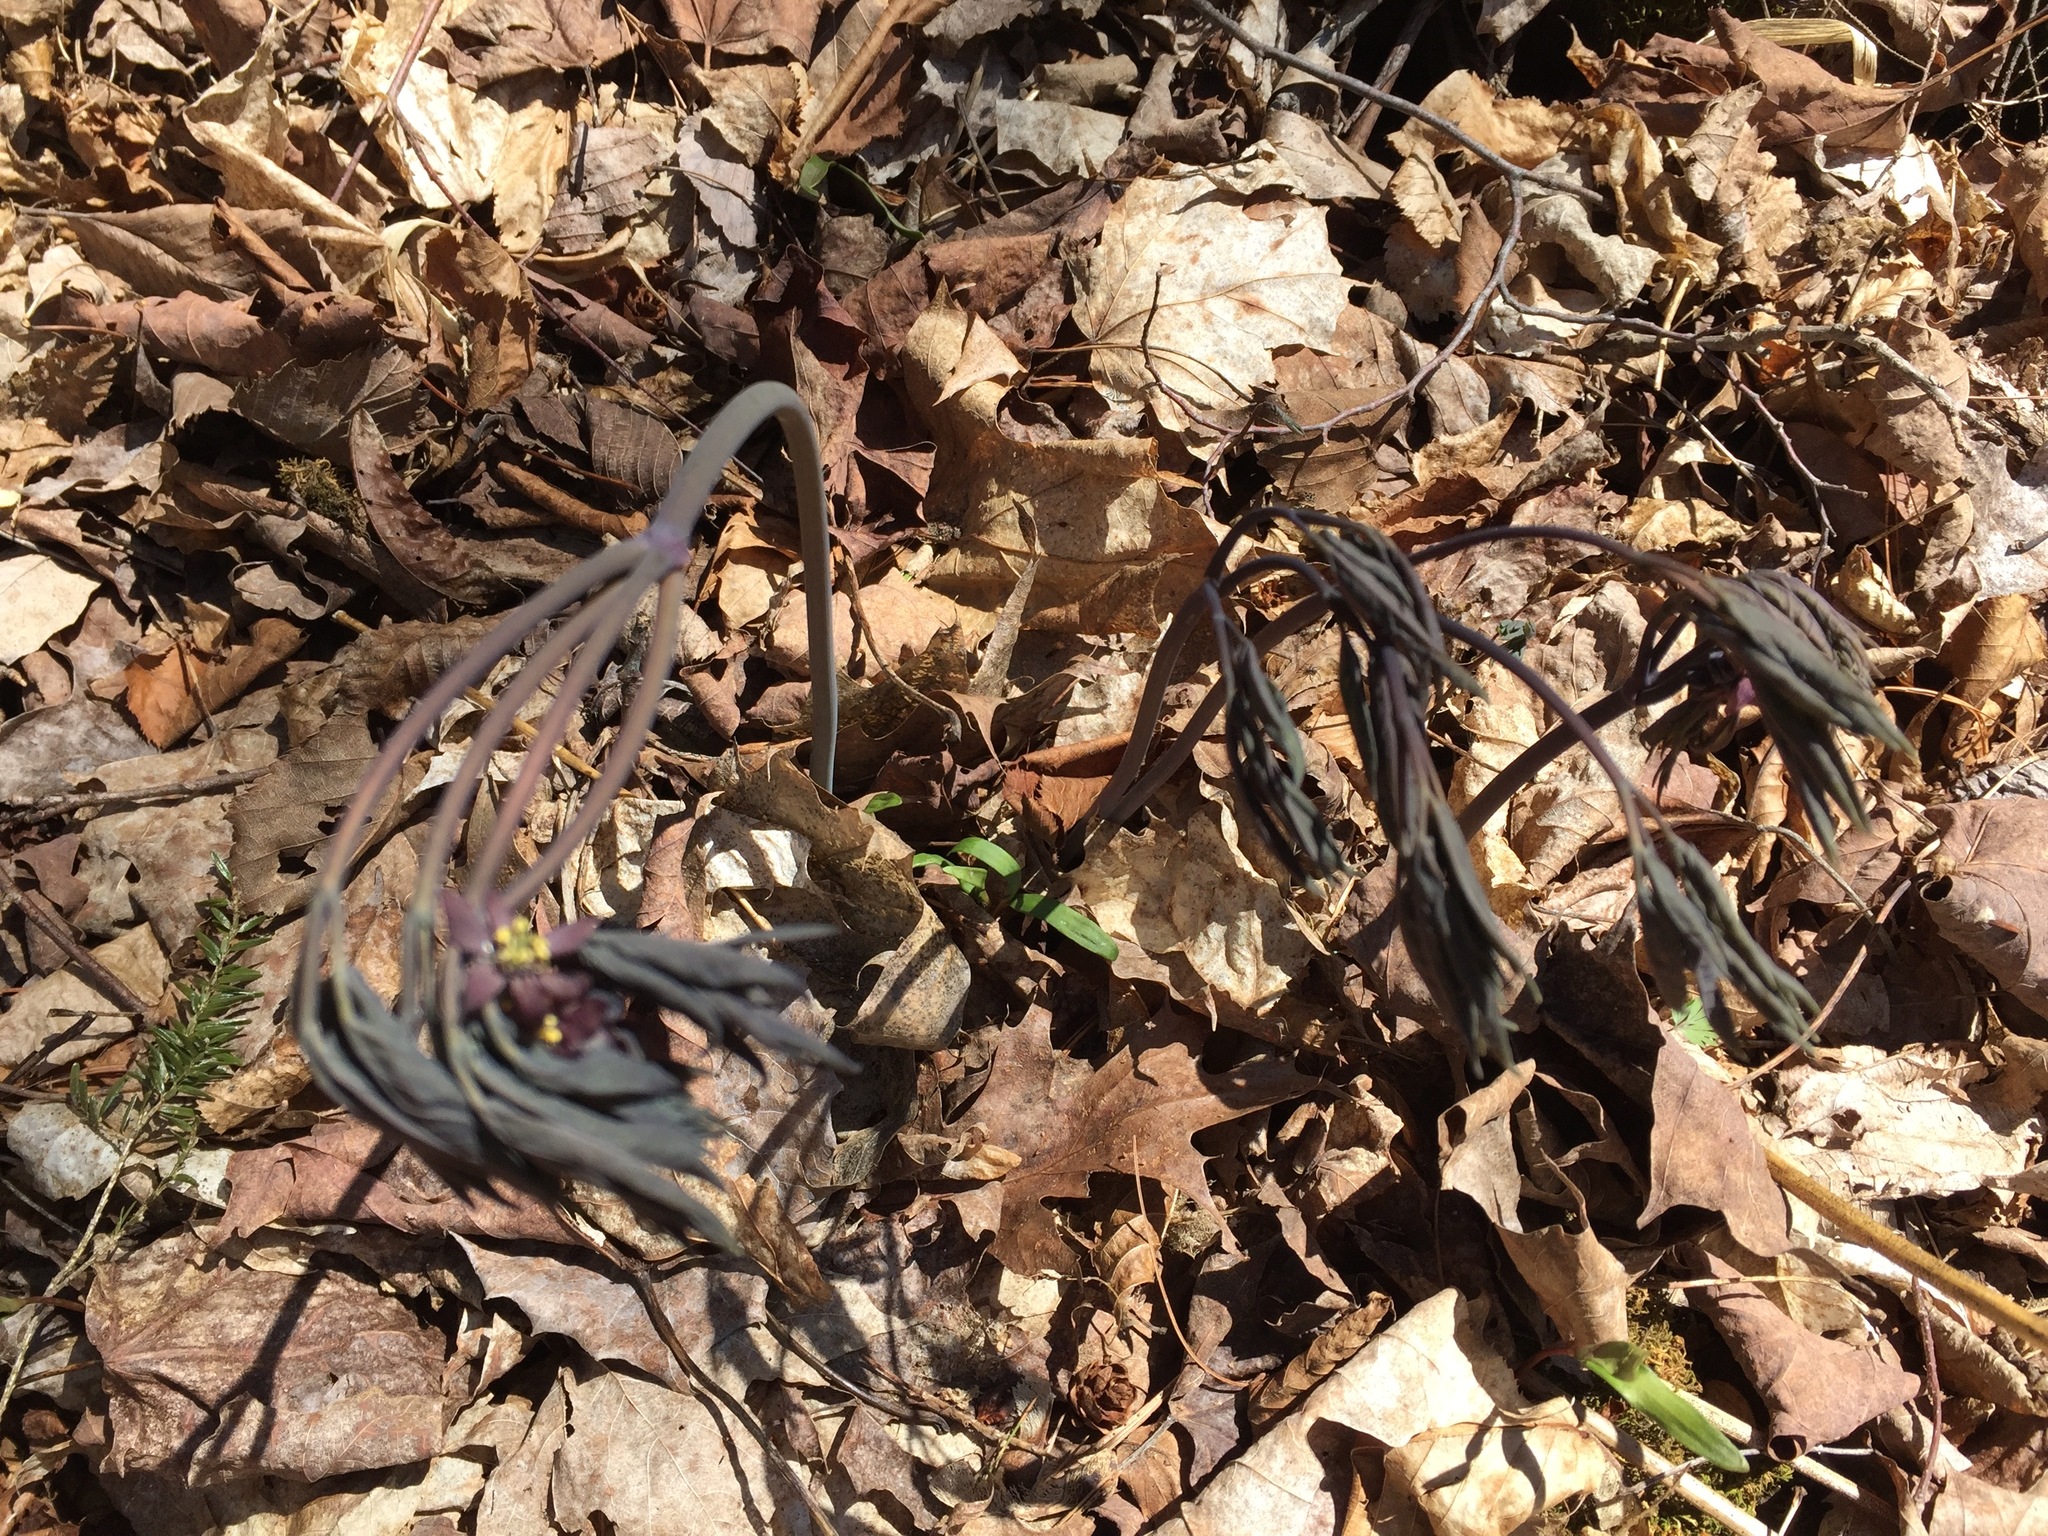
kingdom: Plantae
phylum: Tracheophyta
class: Magnoliopsida
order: Ranunculales
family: Berberidaceae
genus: Caulophyllum
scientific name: Caulophyllum giganteum
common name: Blue cohosh
